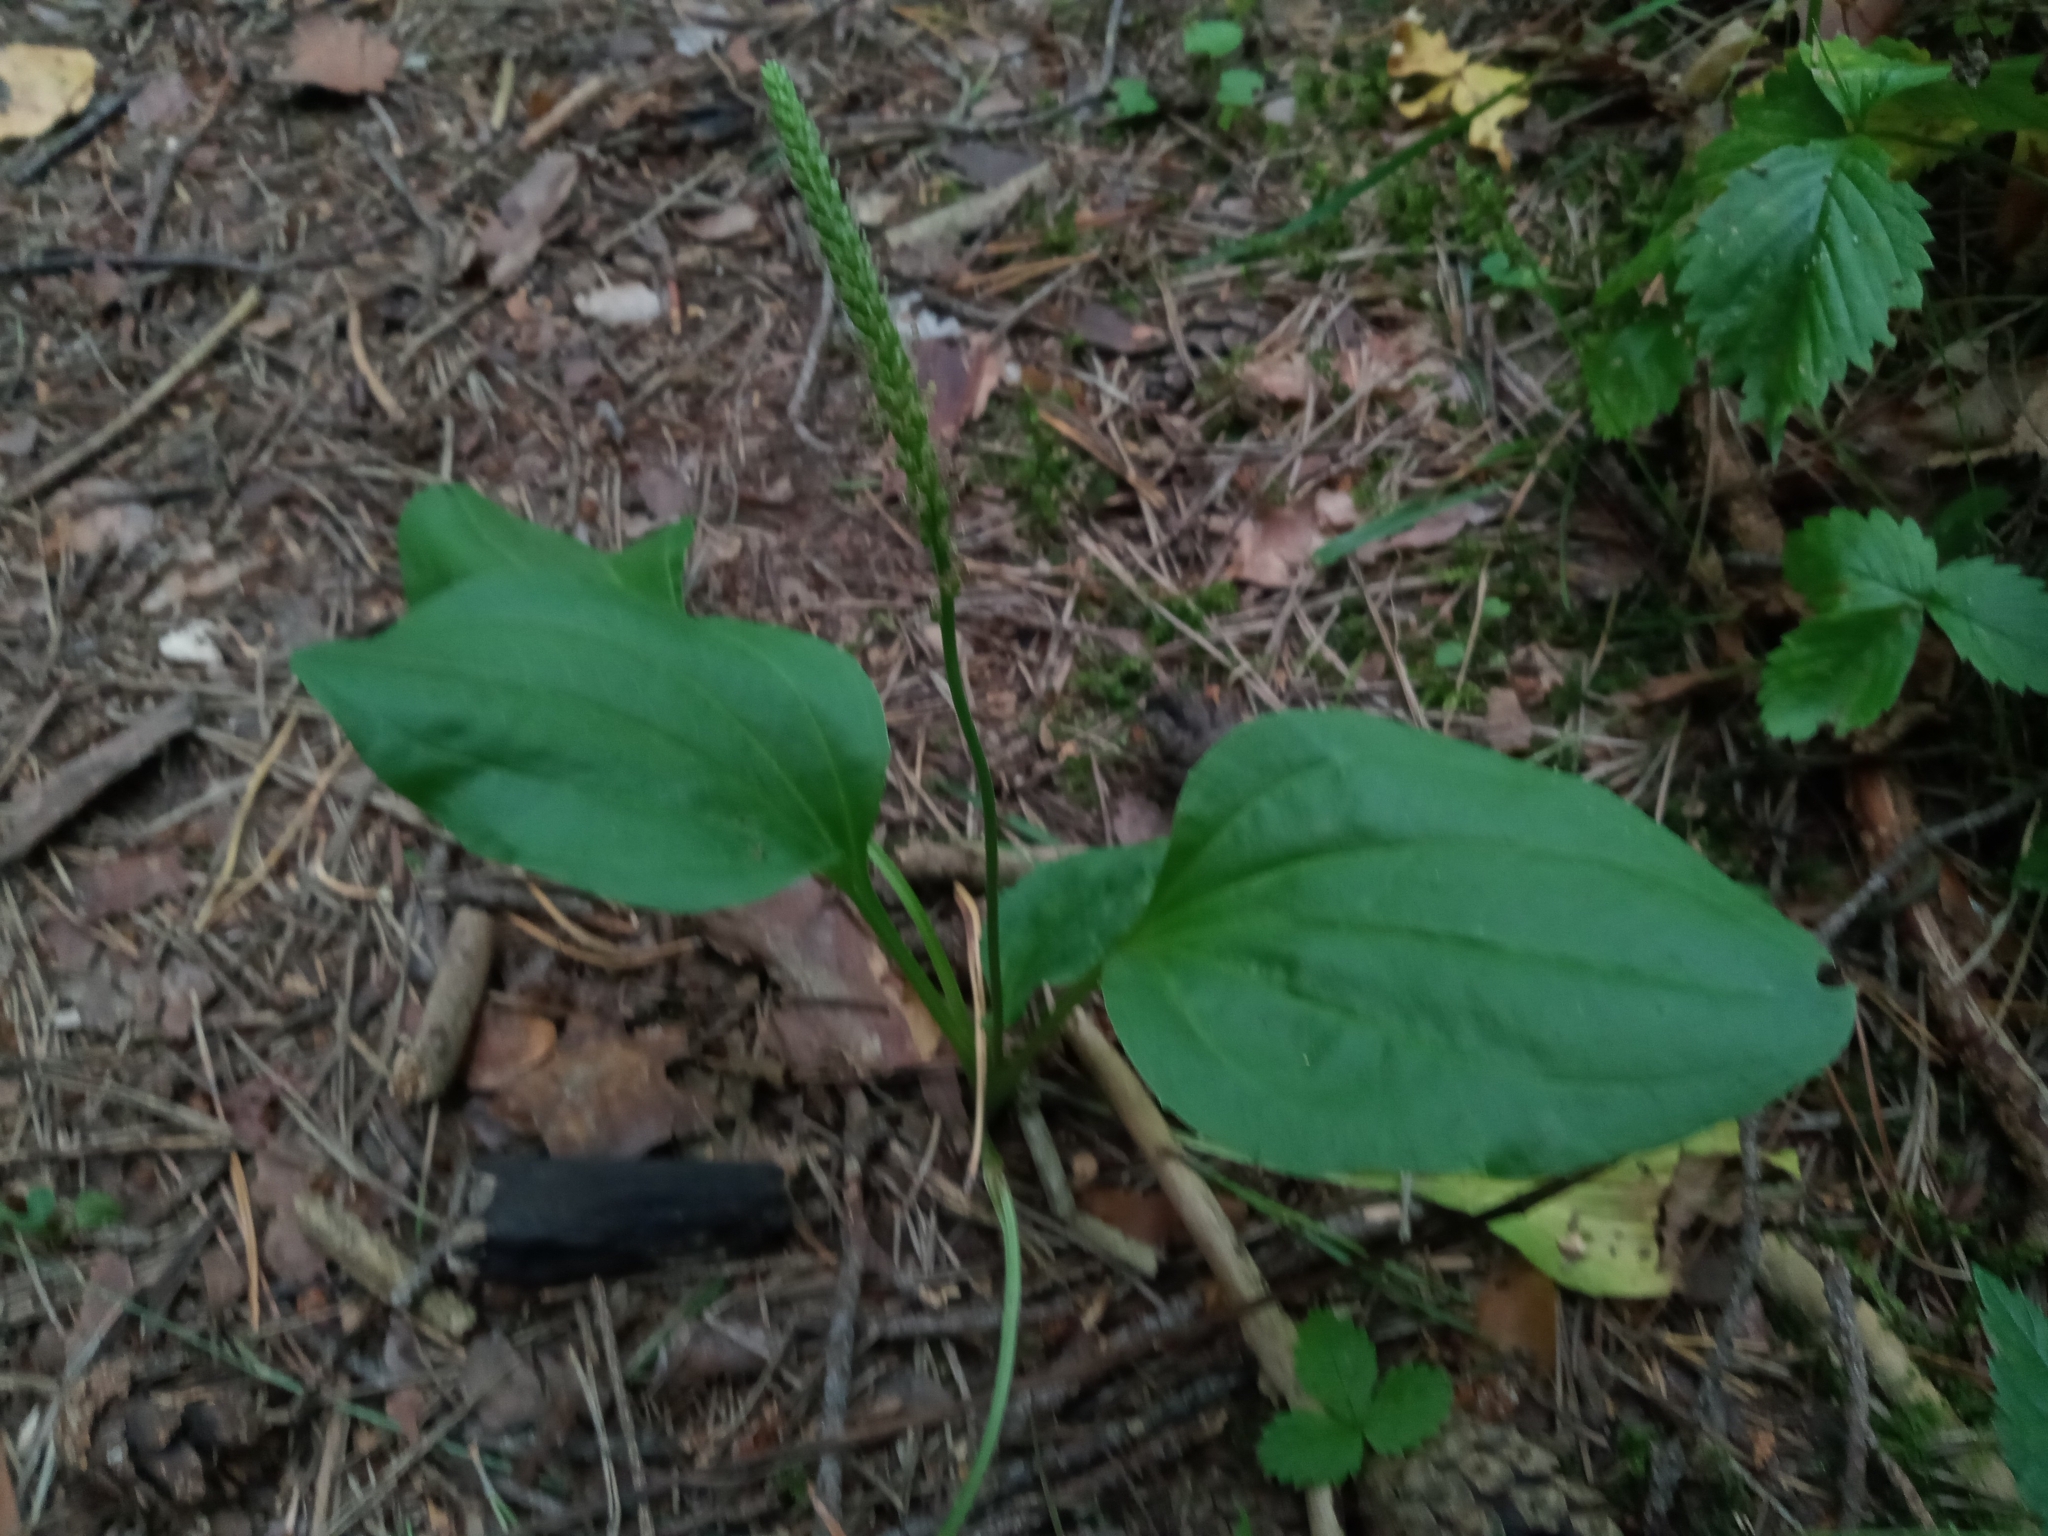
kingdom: Plantae
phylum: Tracheophyta
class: Magnoliopsida
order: Lamiales
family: Plantaginaceae
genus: Plantago
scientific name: Plantago major
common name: Common plantain
